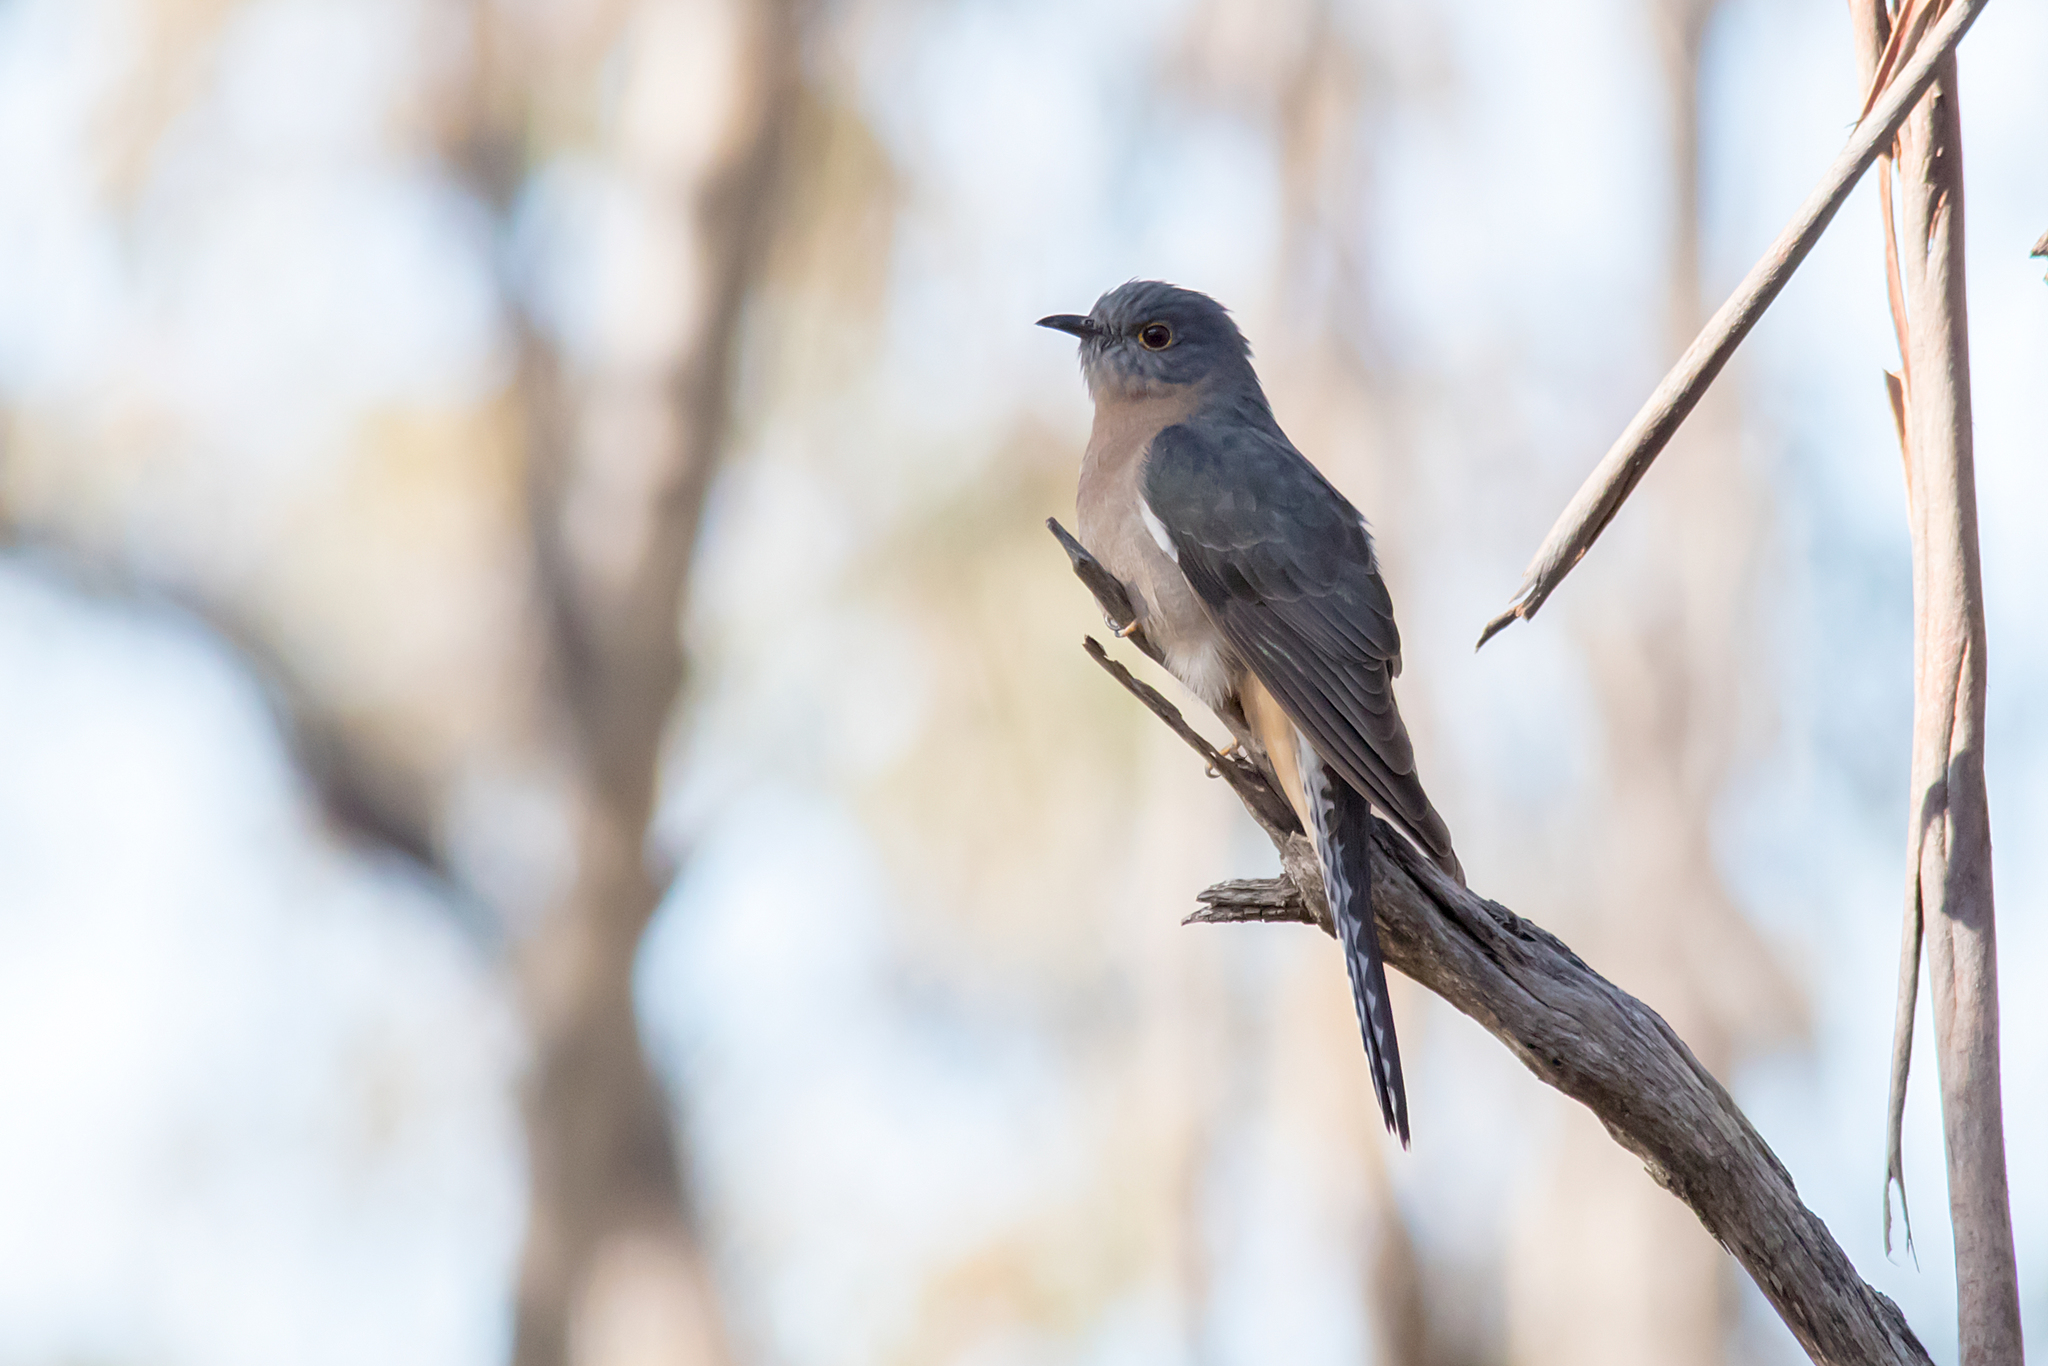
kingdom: Animalia
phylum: Chordata
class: Aves
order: Cuculiformes
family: Cuculidae
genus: Cacomantis
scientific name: Cacomantis flabelliformis
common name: Fan-tailed cuckoo
